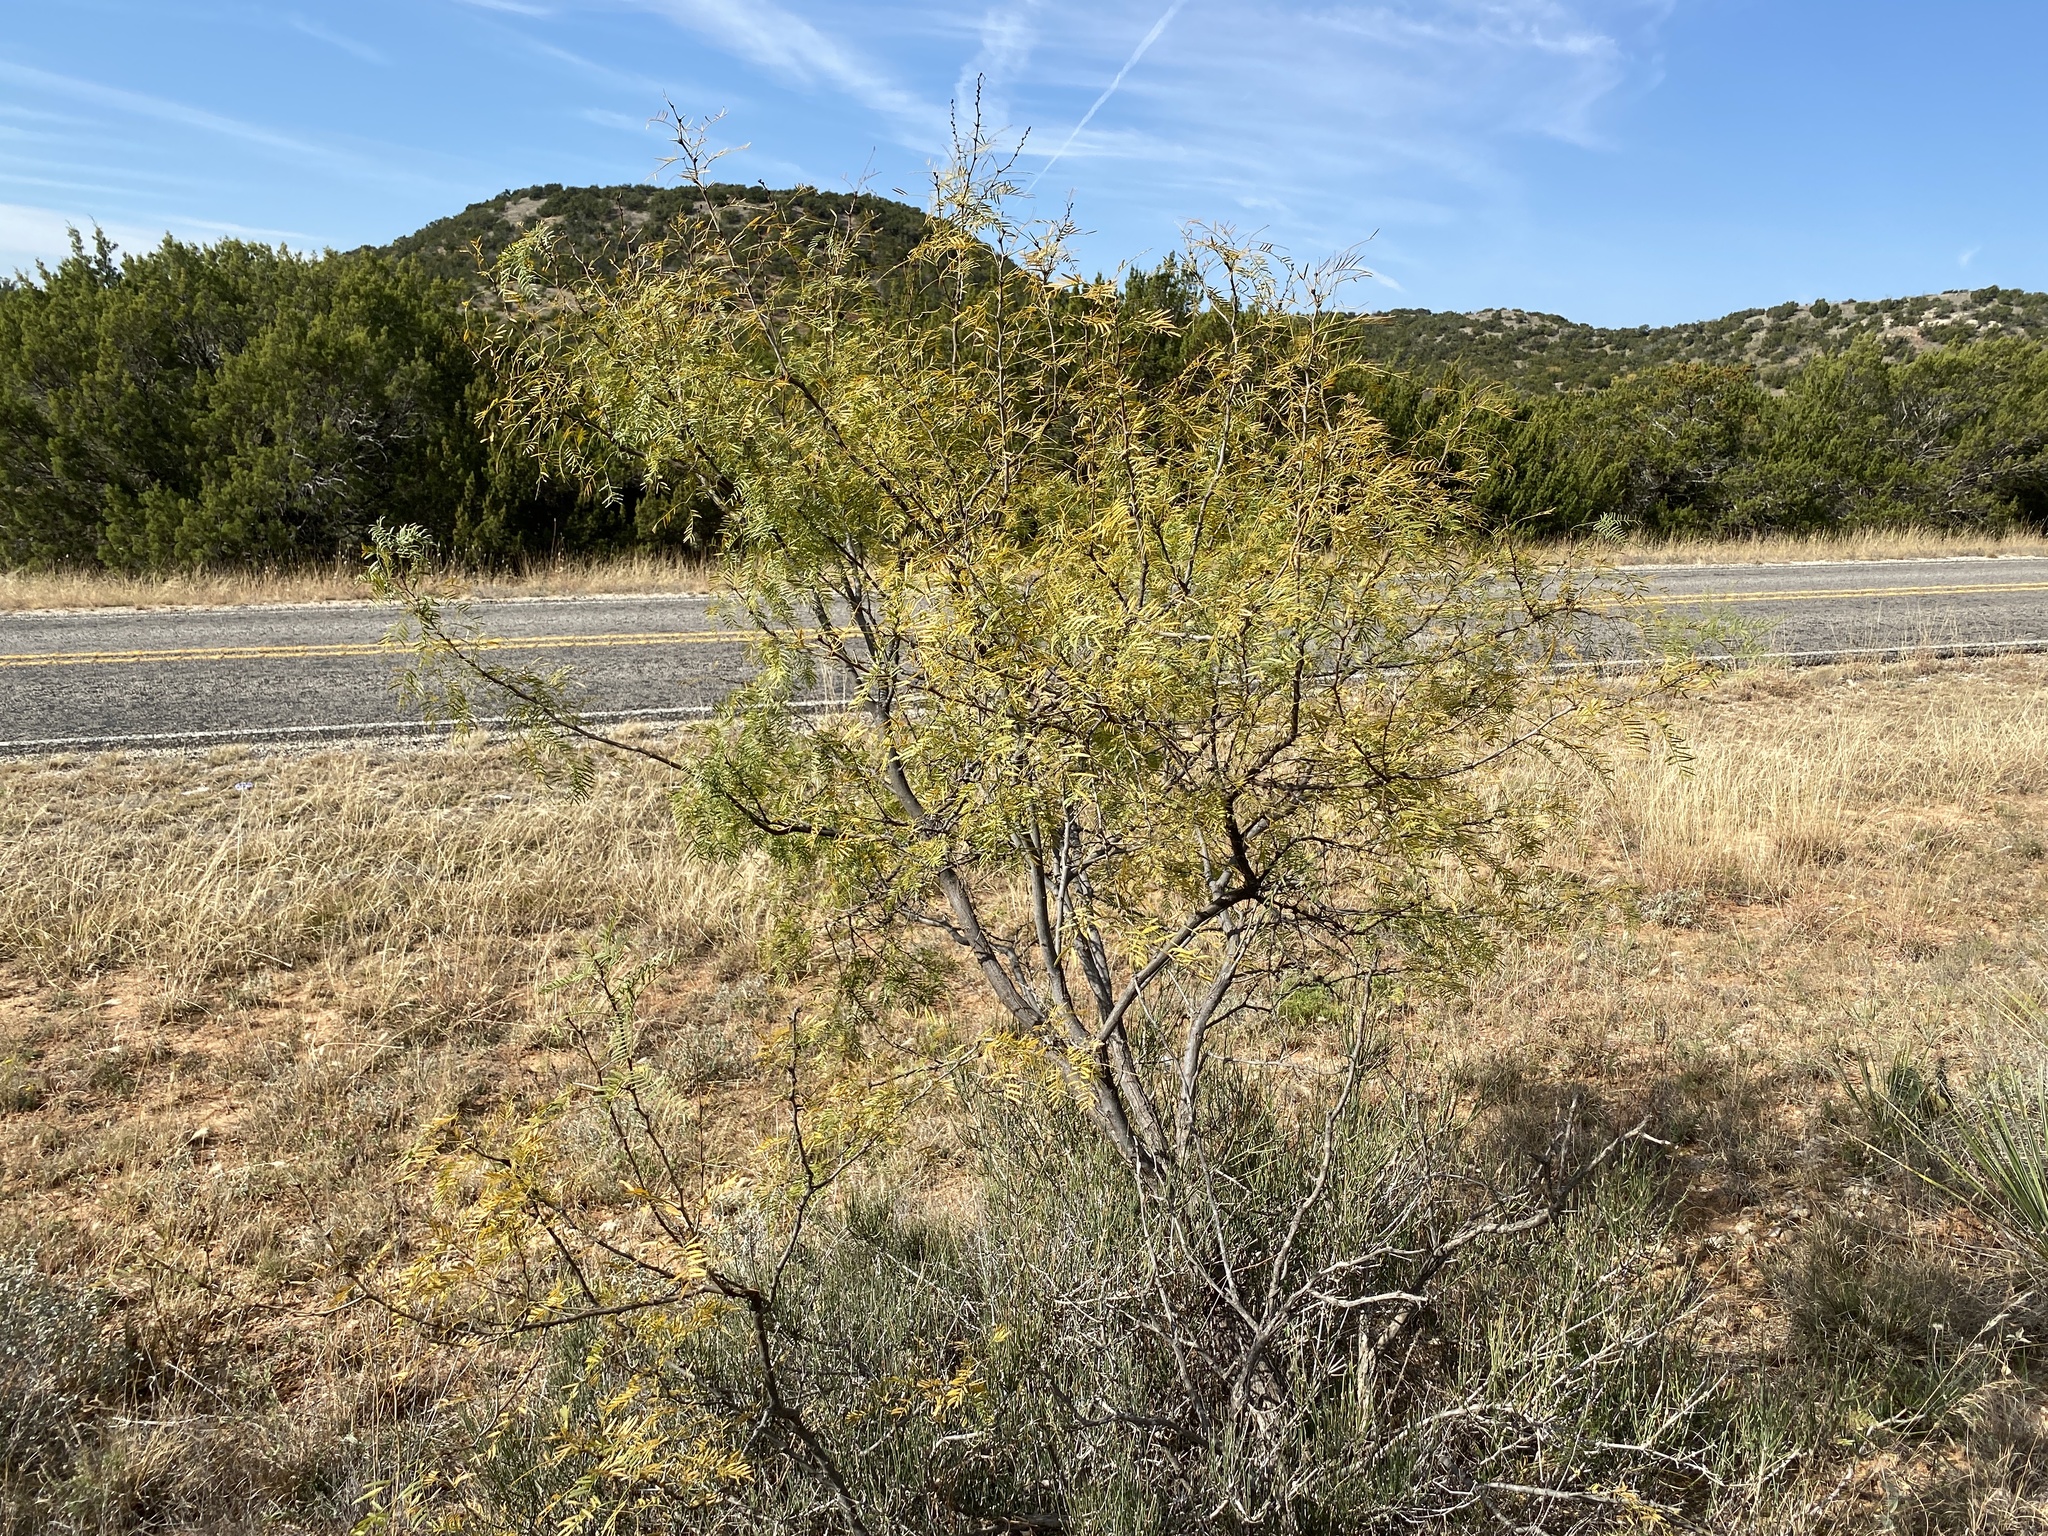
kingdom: Plantae
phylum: Tracheophyta
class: Magnoliopsida
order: Fabales
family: Fabaceae
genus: Prosopis
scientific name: Prosopis glandulosa
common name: Honey mesquite
